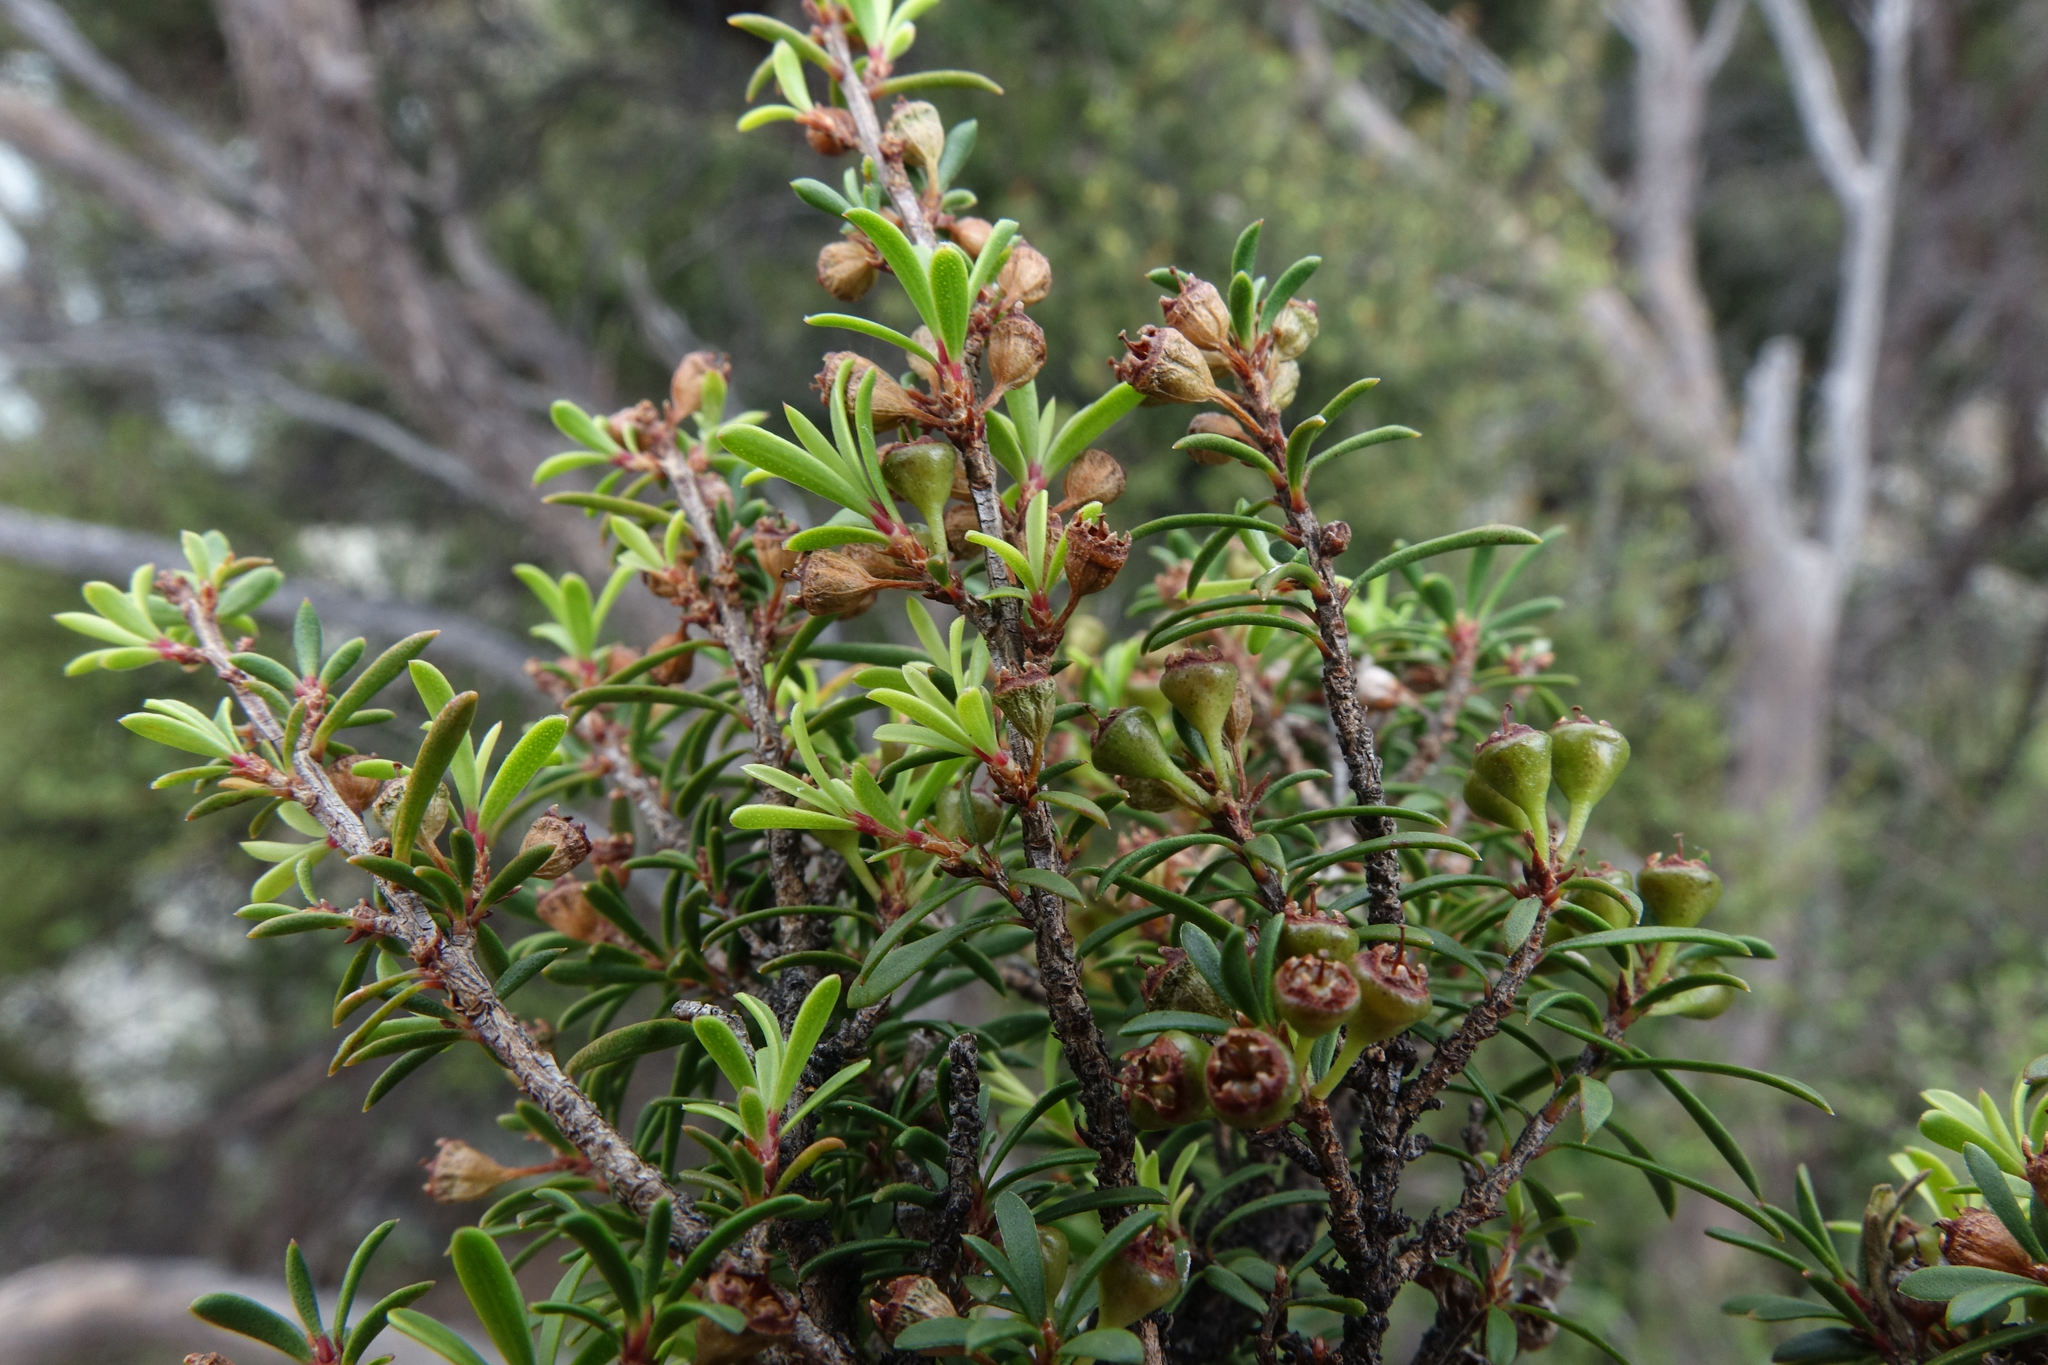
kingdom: Plantae
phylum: Tracheophyta
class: Magnoliopsida
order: Myrtales
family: Myrtaceae
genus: Kunzea
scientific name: Kunzea serotina
